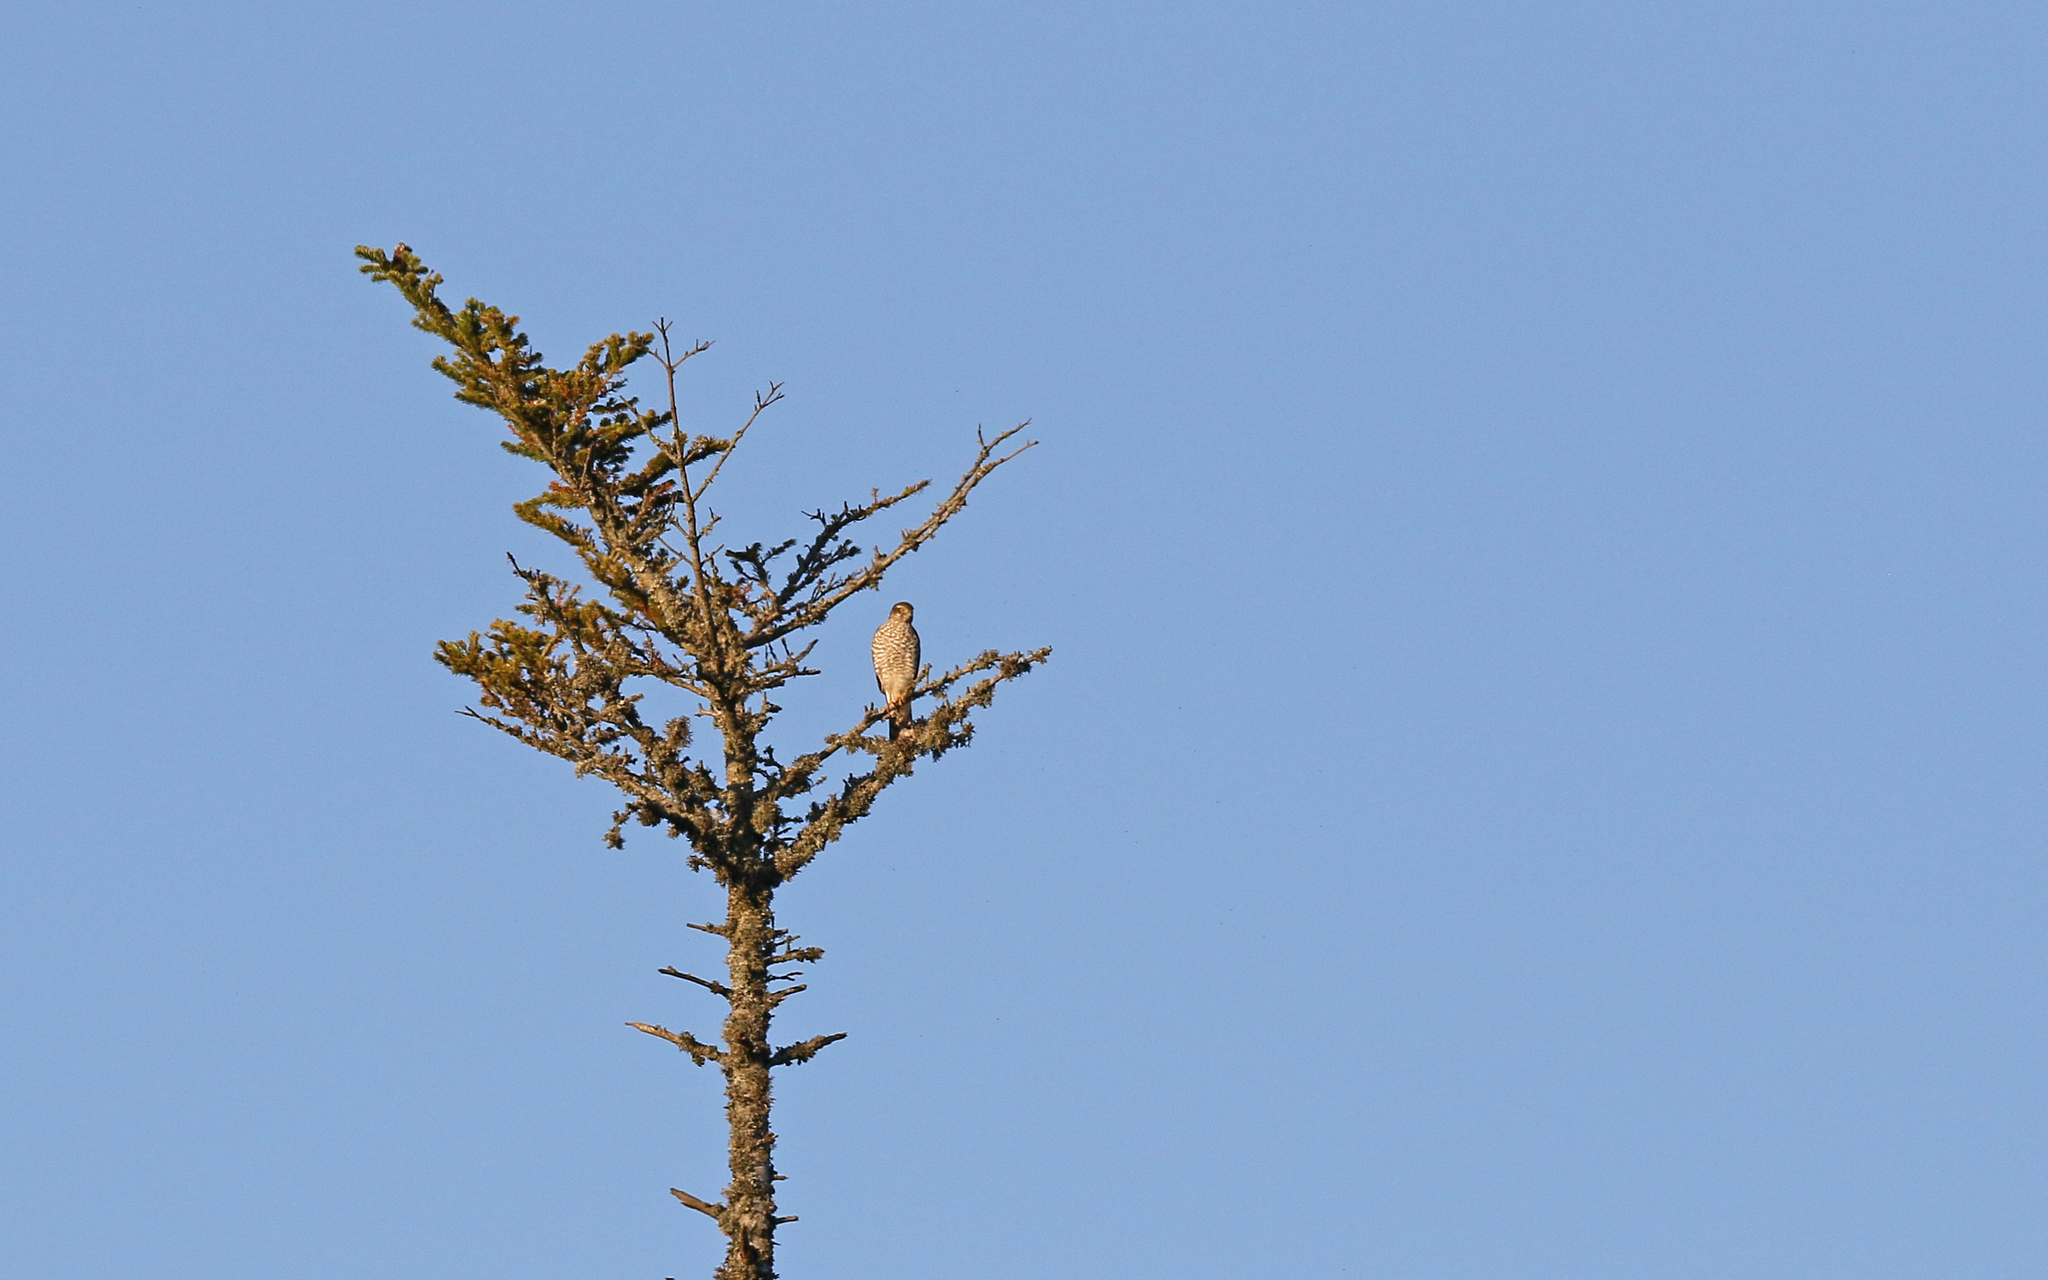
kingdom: Animalia
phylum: Chordata
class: Aves
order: Accipitriformes
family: Accipitridae
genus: Accipiter
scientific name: Accipiter nisus
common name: Eurasian sparrowhawk
